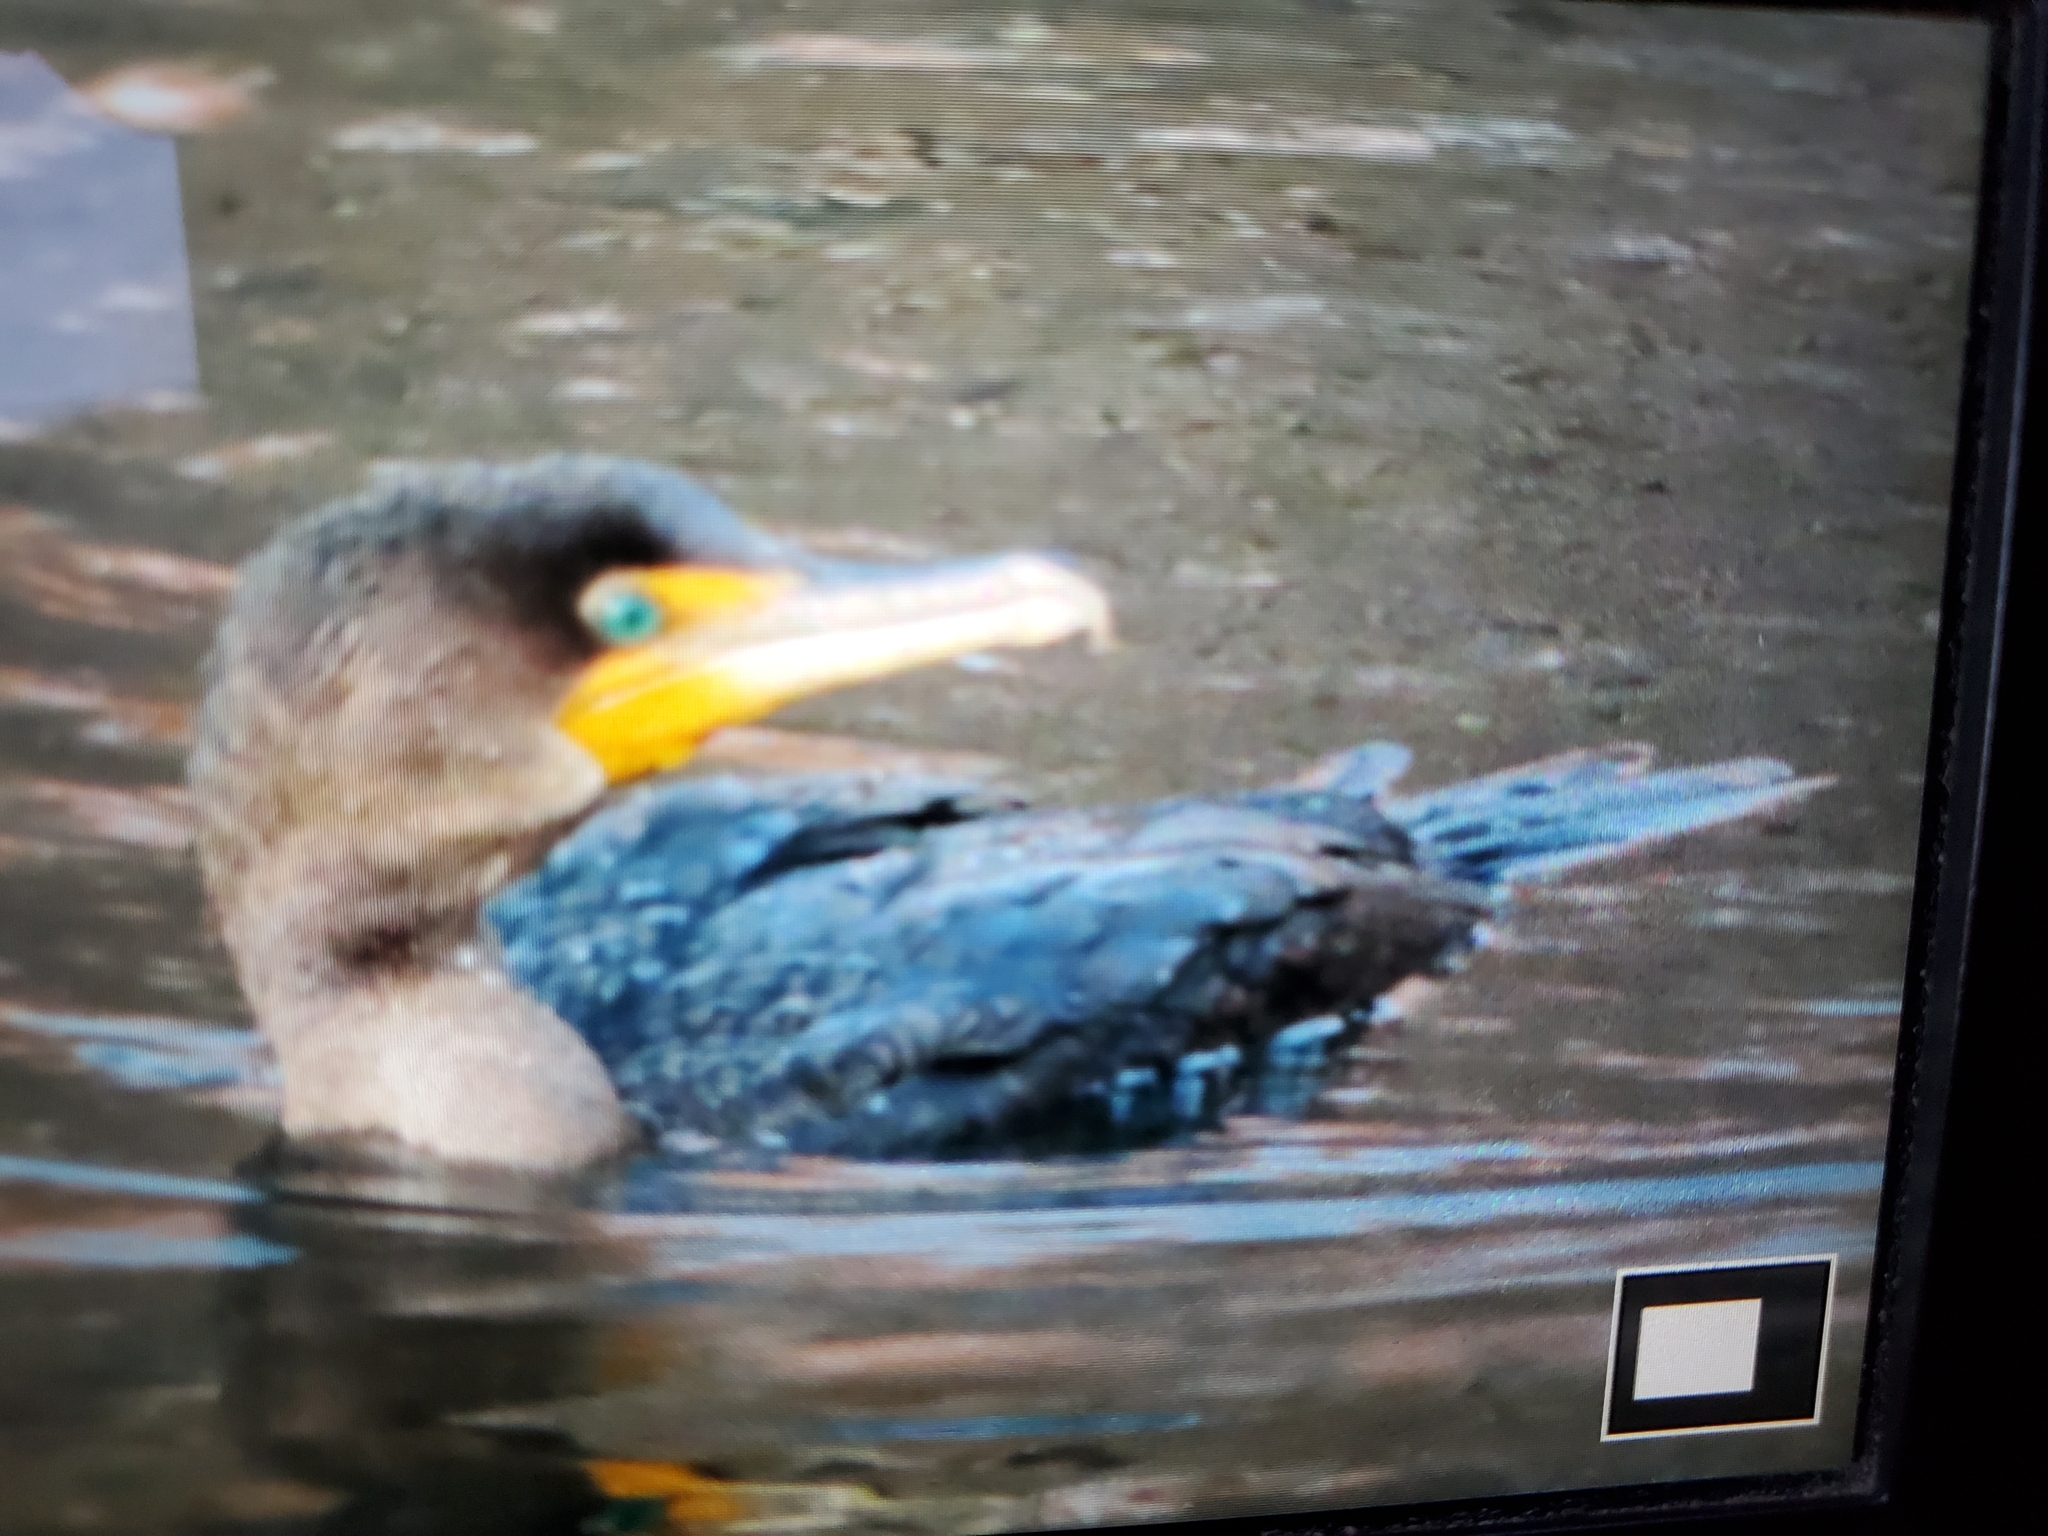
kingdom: Animalia
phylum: Chordata
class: Aves
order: Suliformes
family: Phalacrocoracidae
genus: Phalacrocorax
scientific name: Phalacrocorax auritus
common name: Double-crested cormorant
